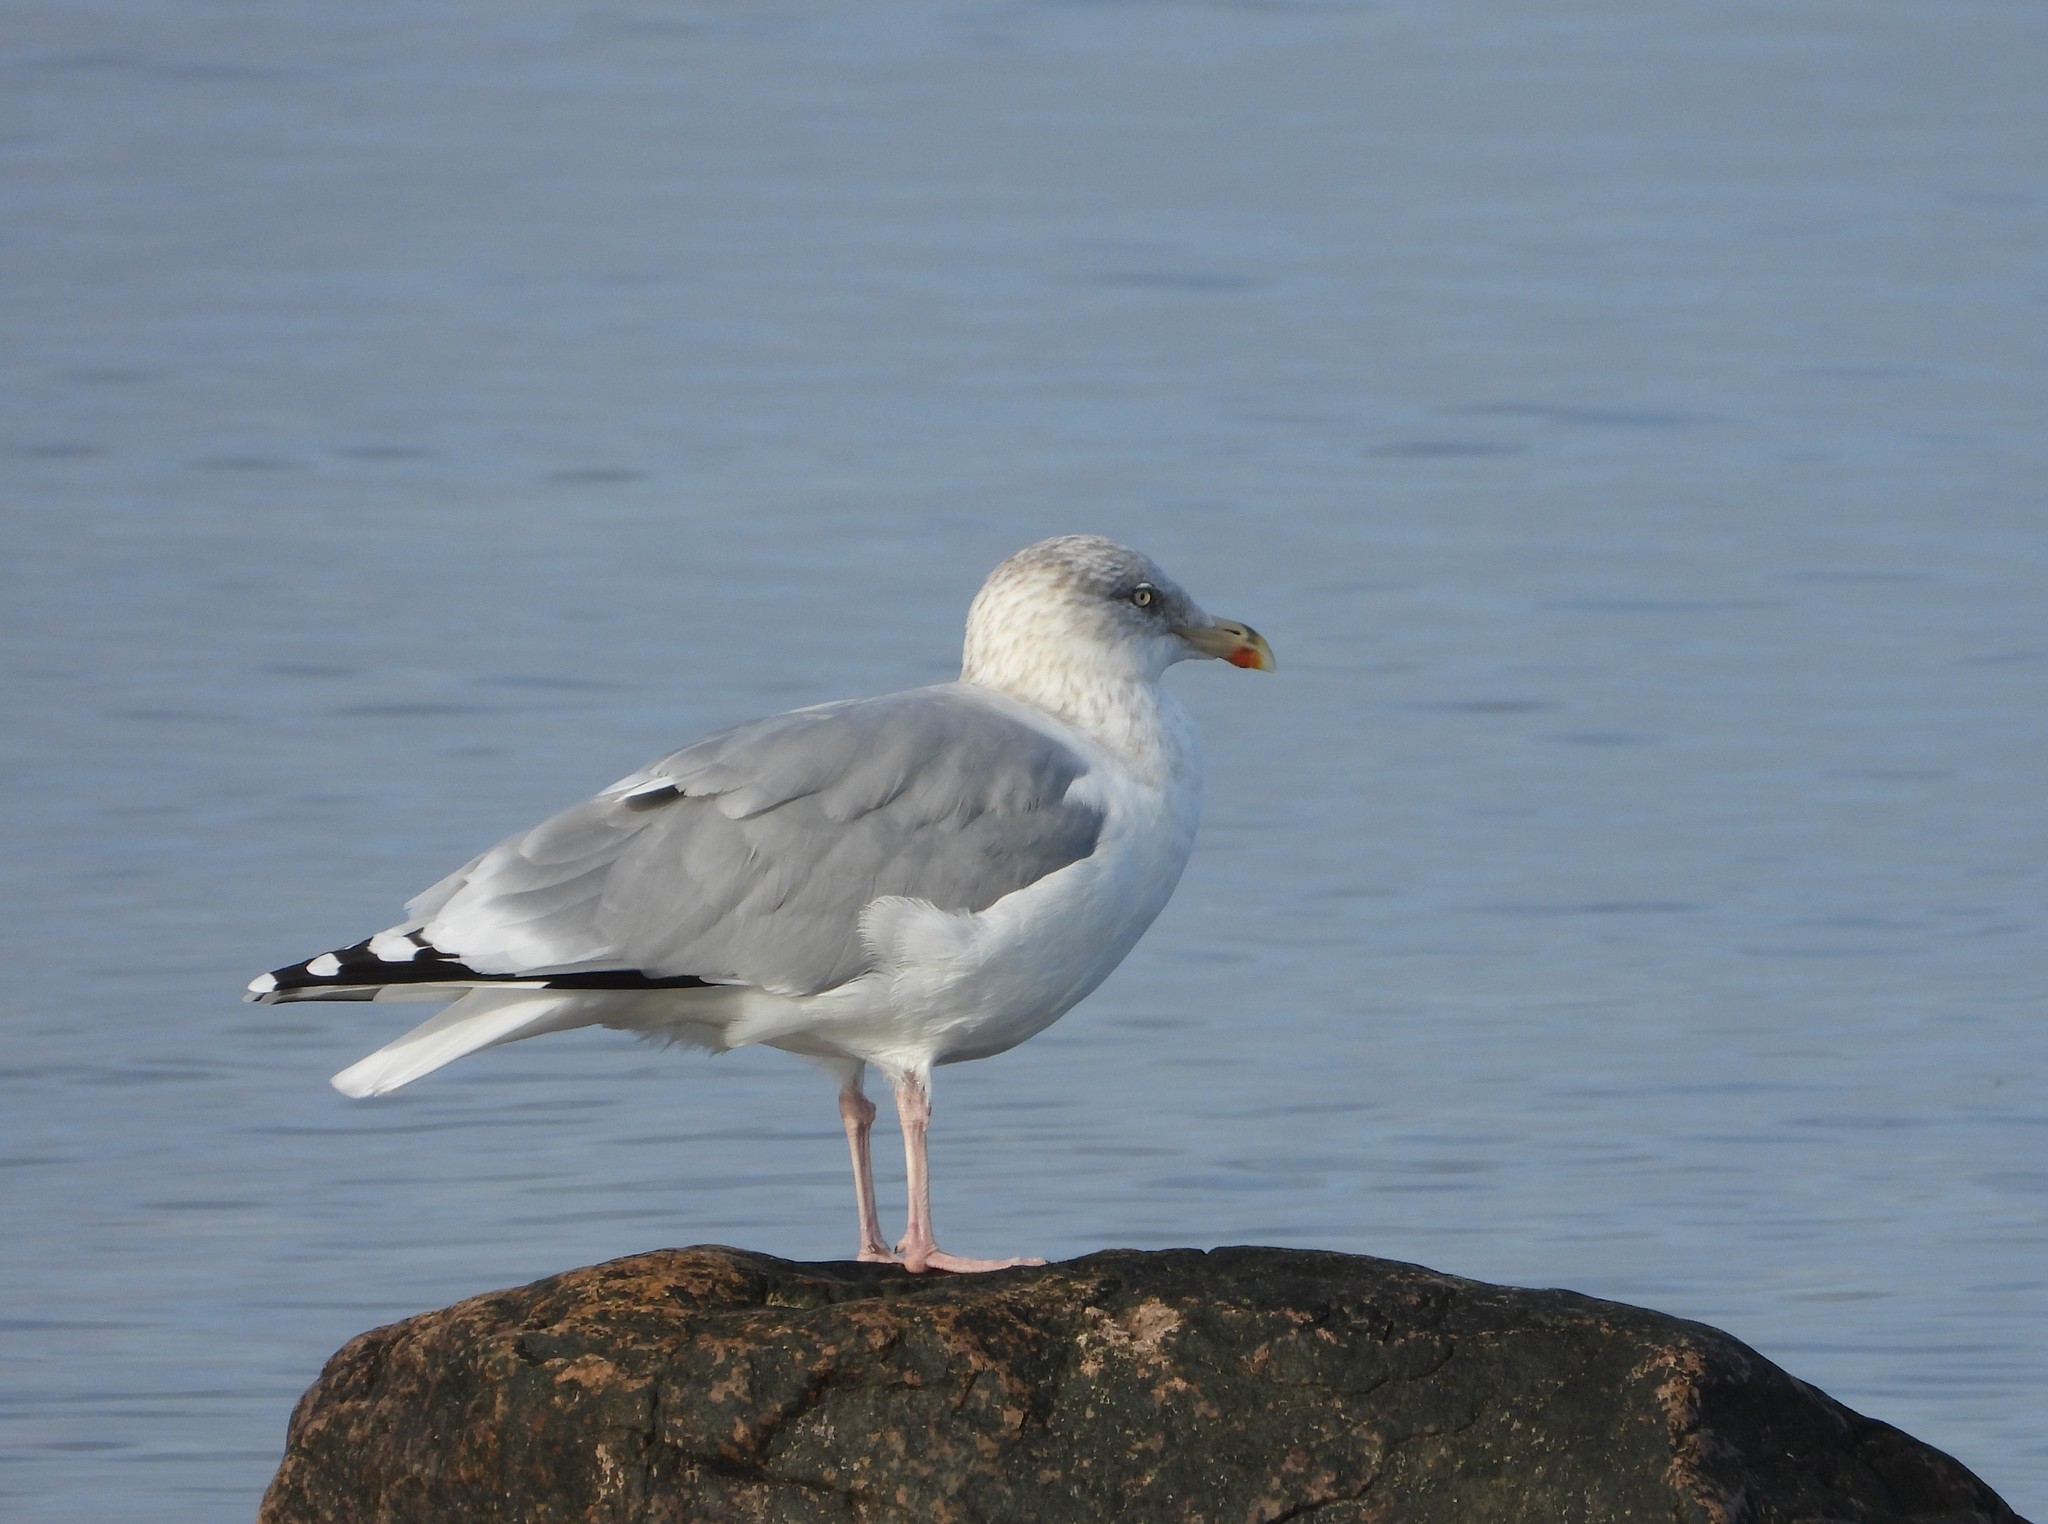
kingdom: Animalia
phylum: Chordata
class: Aves
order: Charadriiformes
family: Laridae
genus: Larus
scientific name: Larus argentatus
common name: Herring gull
